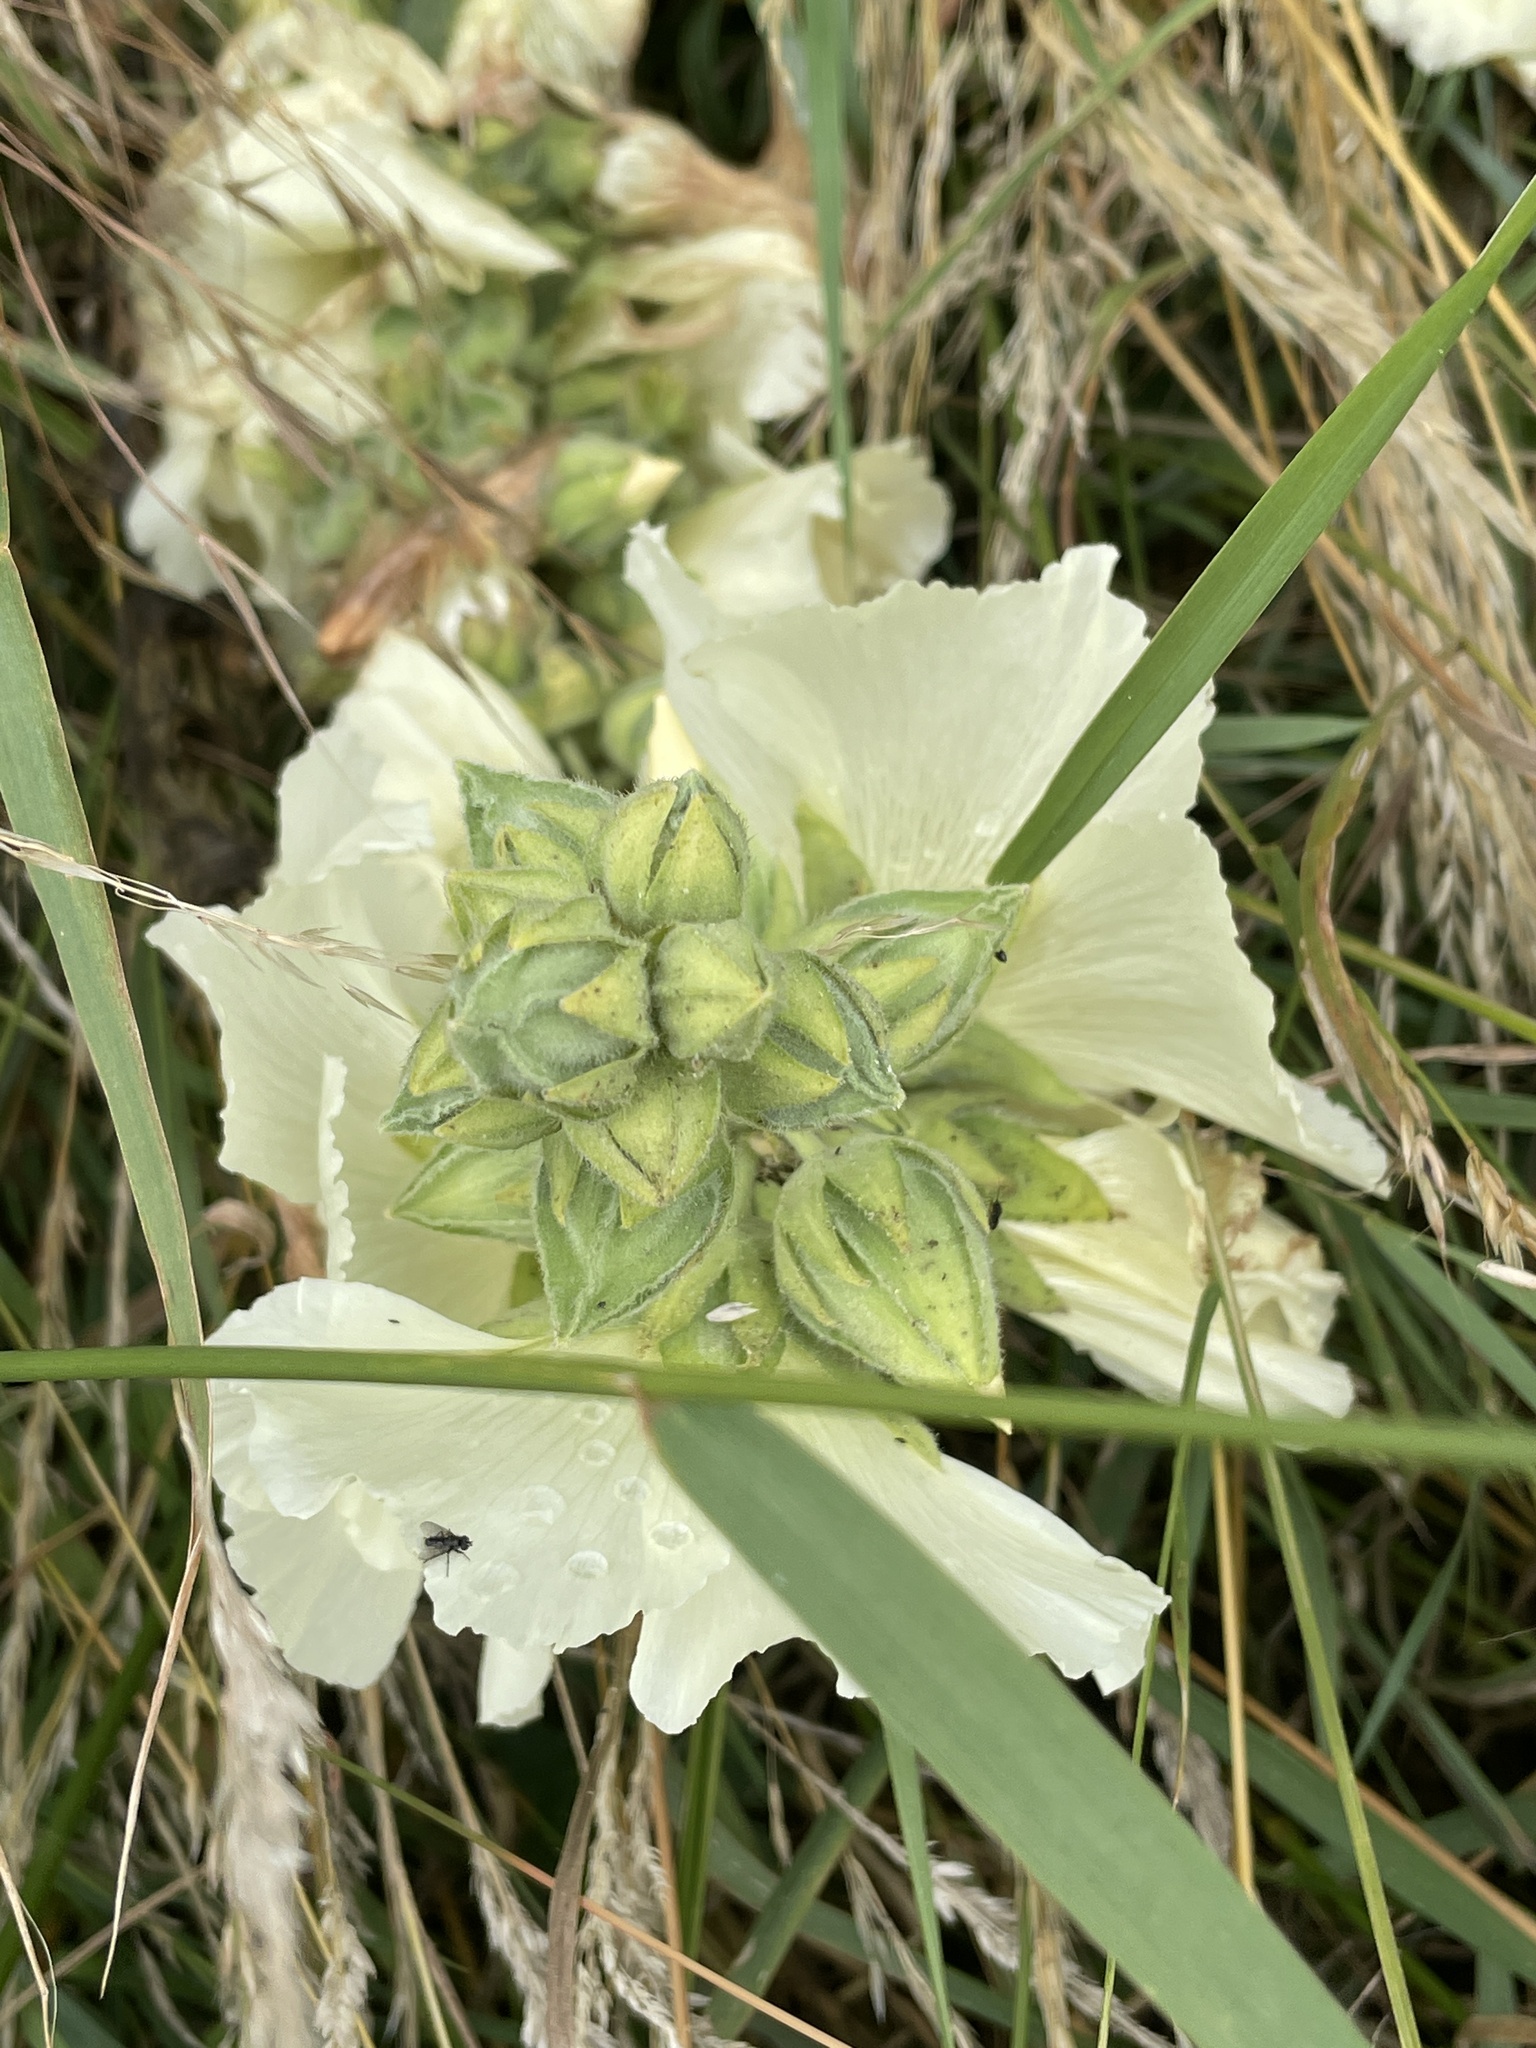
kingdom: Plantae
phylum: Tracheophyta
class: Magnoliopsida
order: Malvales
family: Malvaceae
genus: Alcea
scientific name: Alcea rosea
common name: Hollyhock
